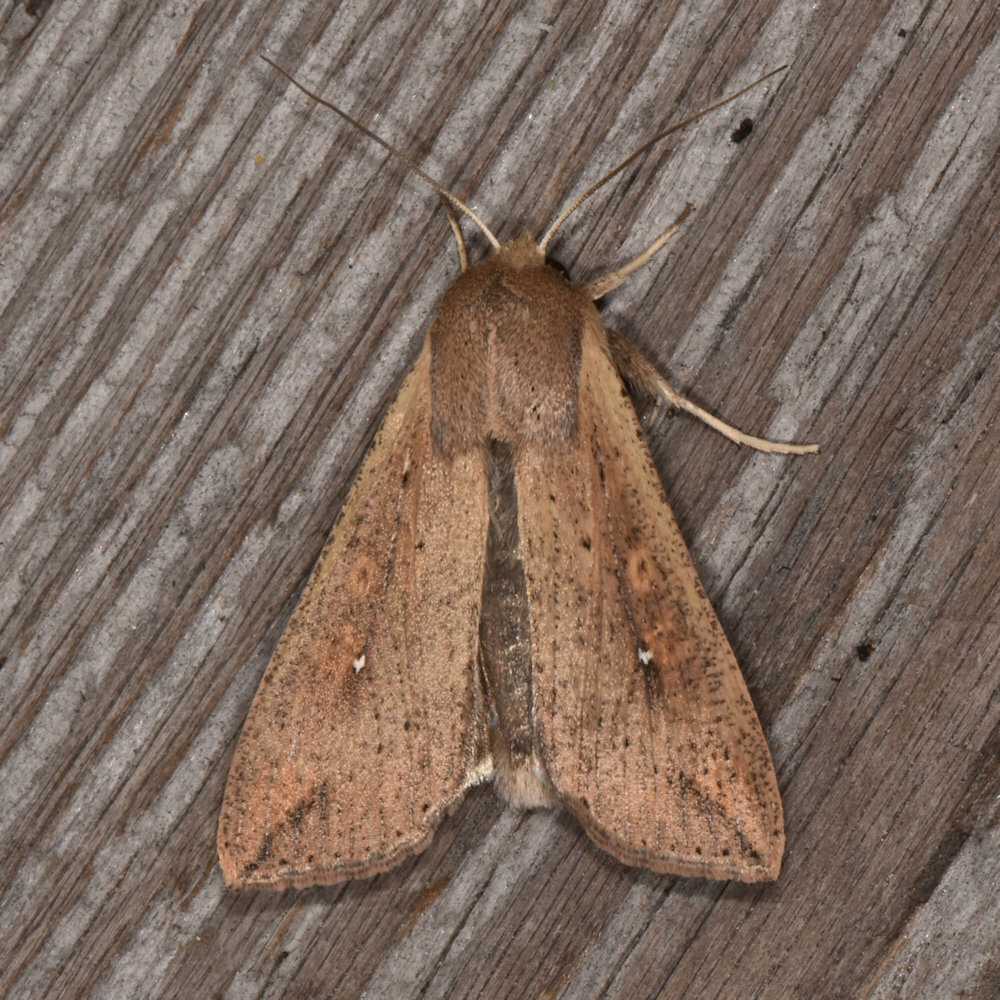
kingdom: Animalia
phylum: Arthropoda
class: Insecta
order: Lepidoptera
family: Noctuidae
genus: Mythimna
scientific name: Mythimna unipuncta
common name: White-speck
